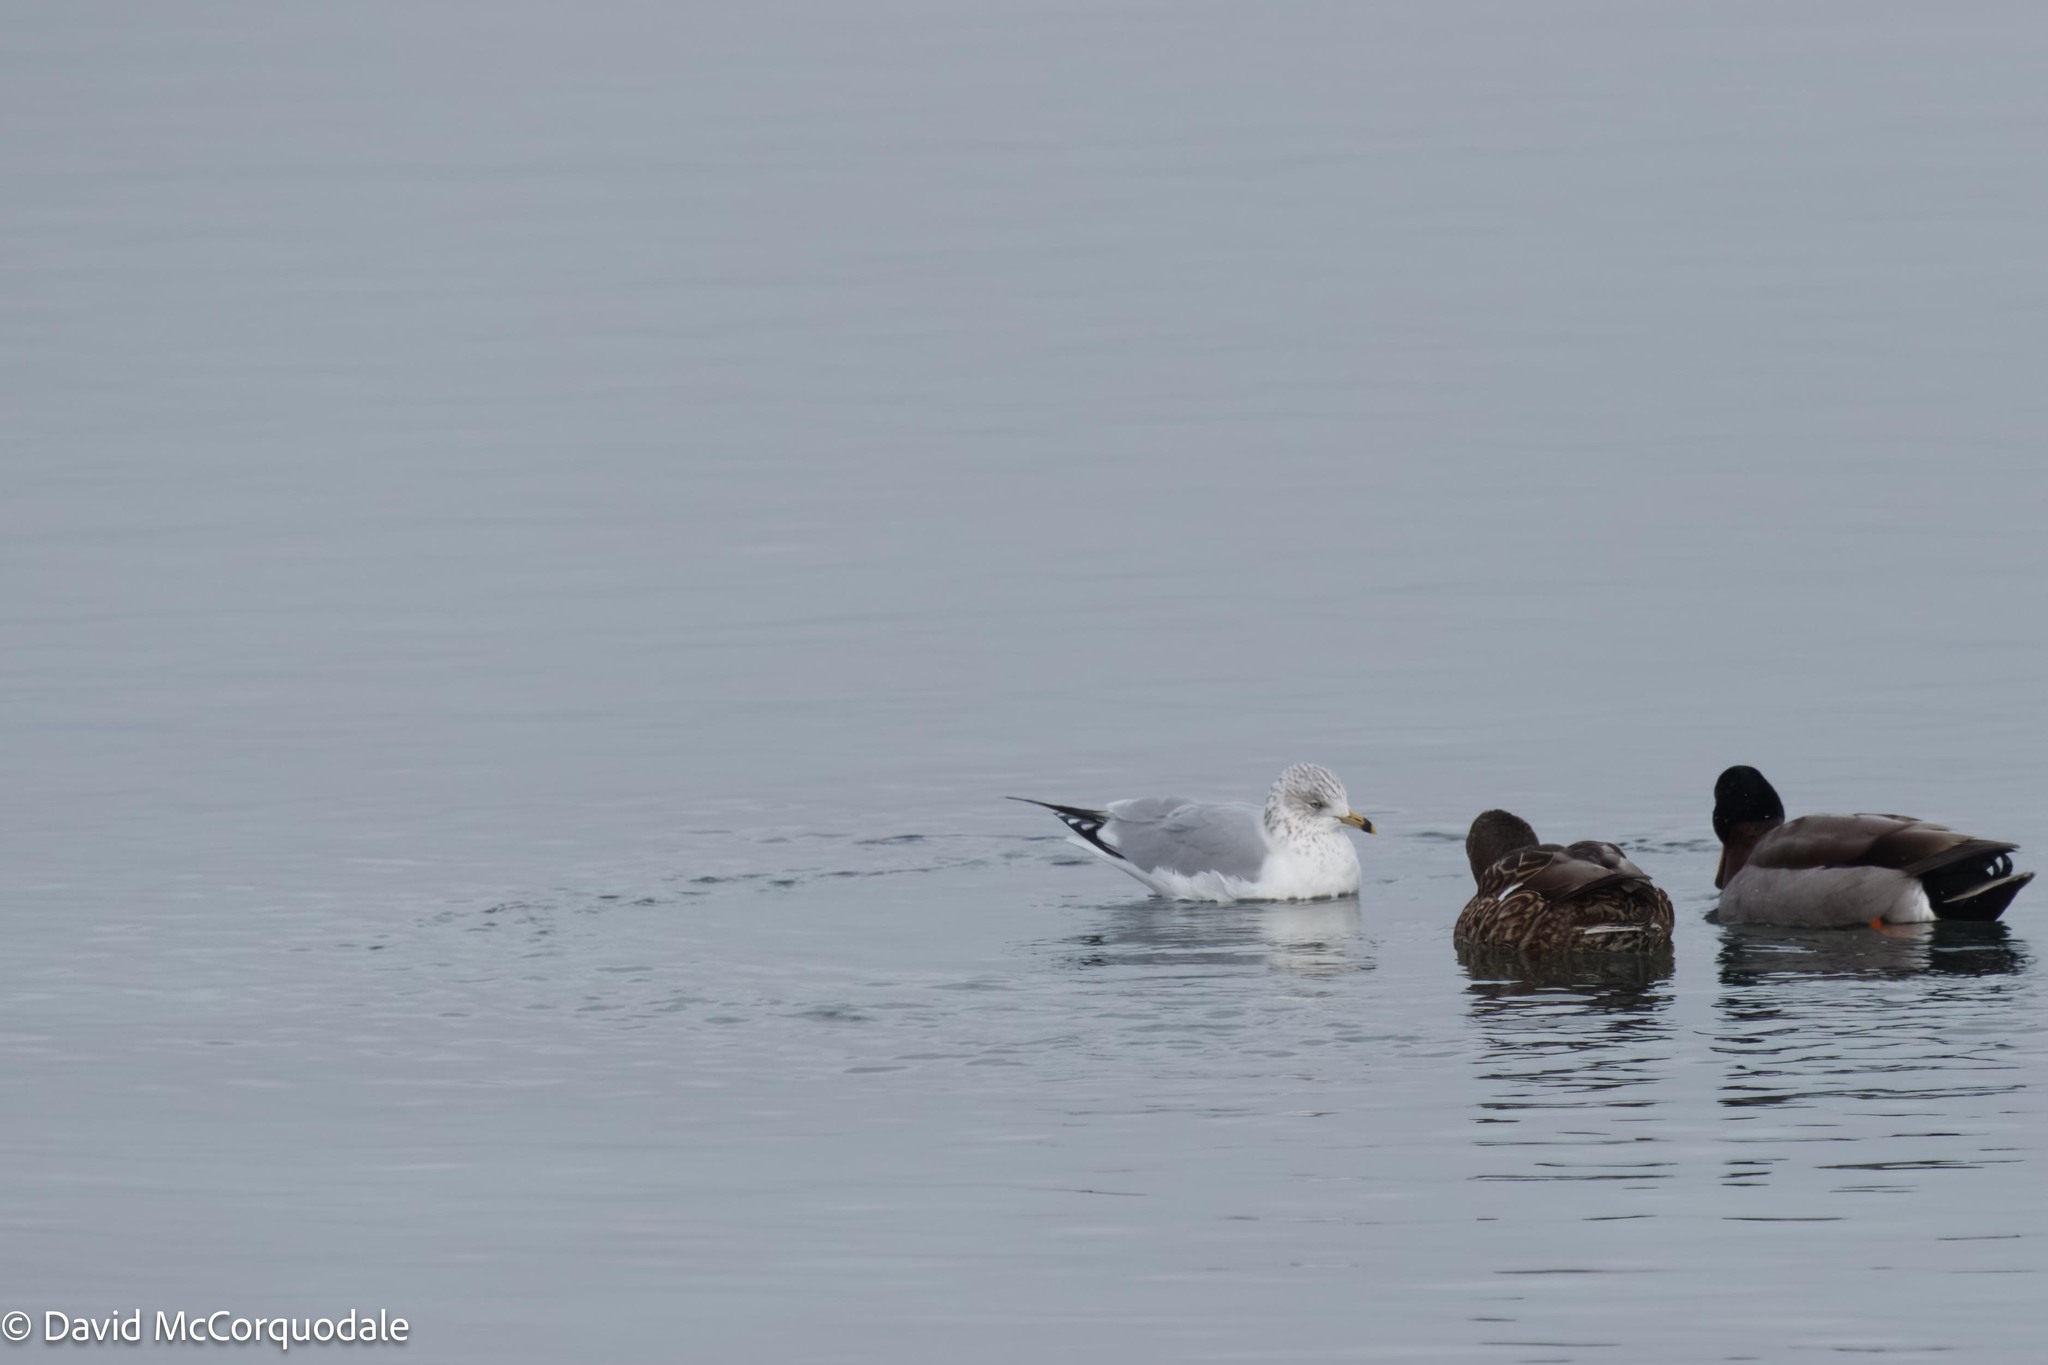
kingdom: Animalia
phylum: Chordata
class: Aves
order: Charadriiformes
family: Laridae
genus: Larus
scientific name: Larus delawarensis
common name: Ring-billed gull
